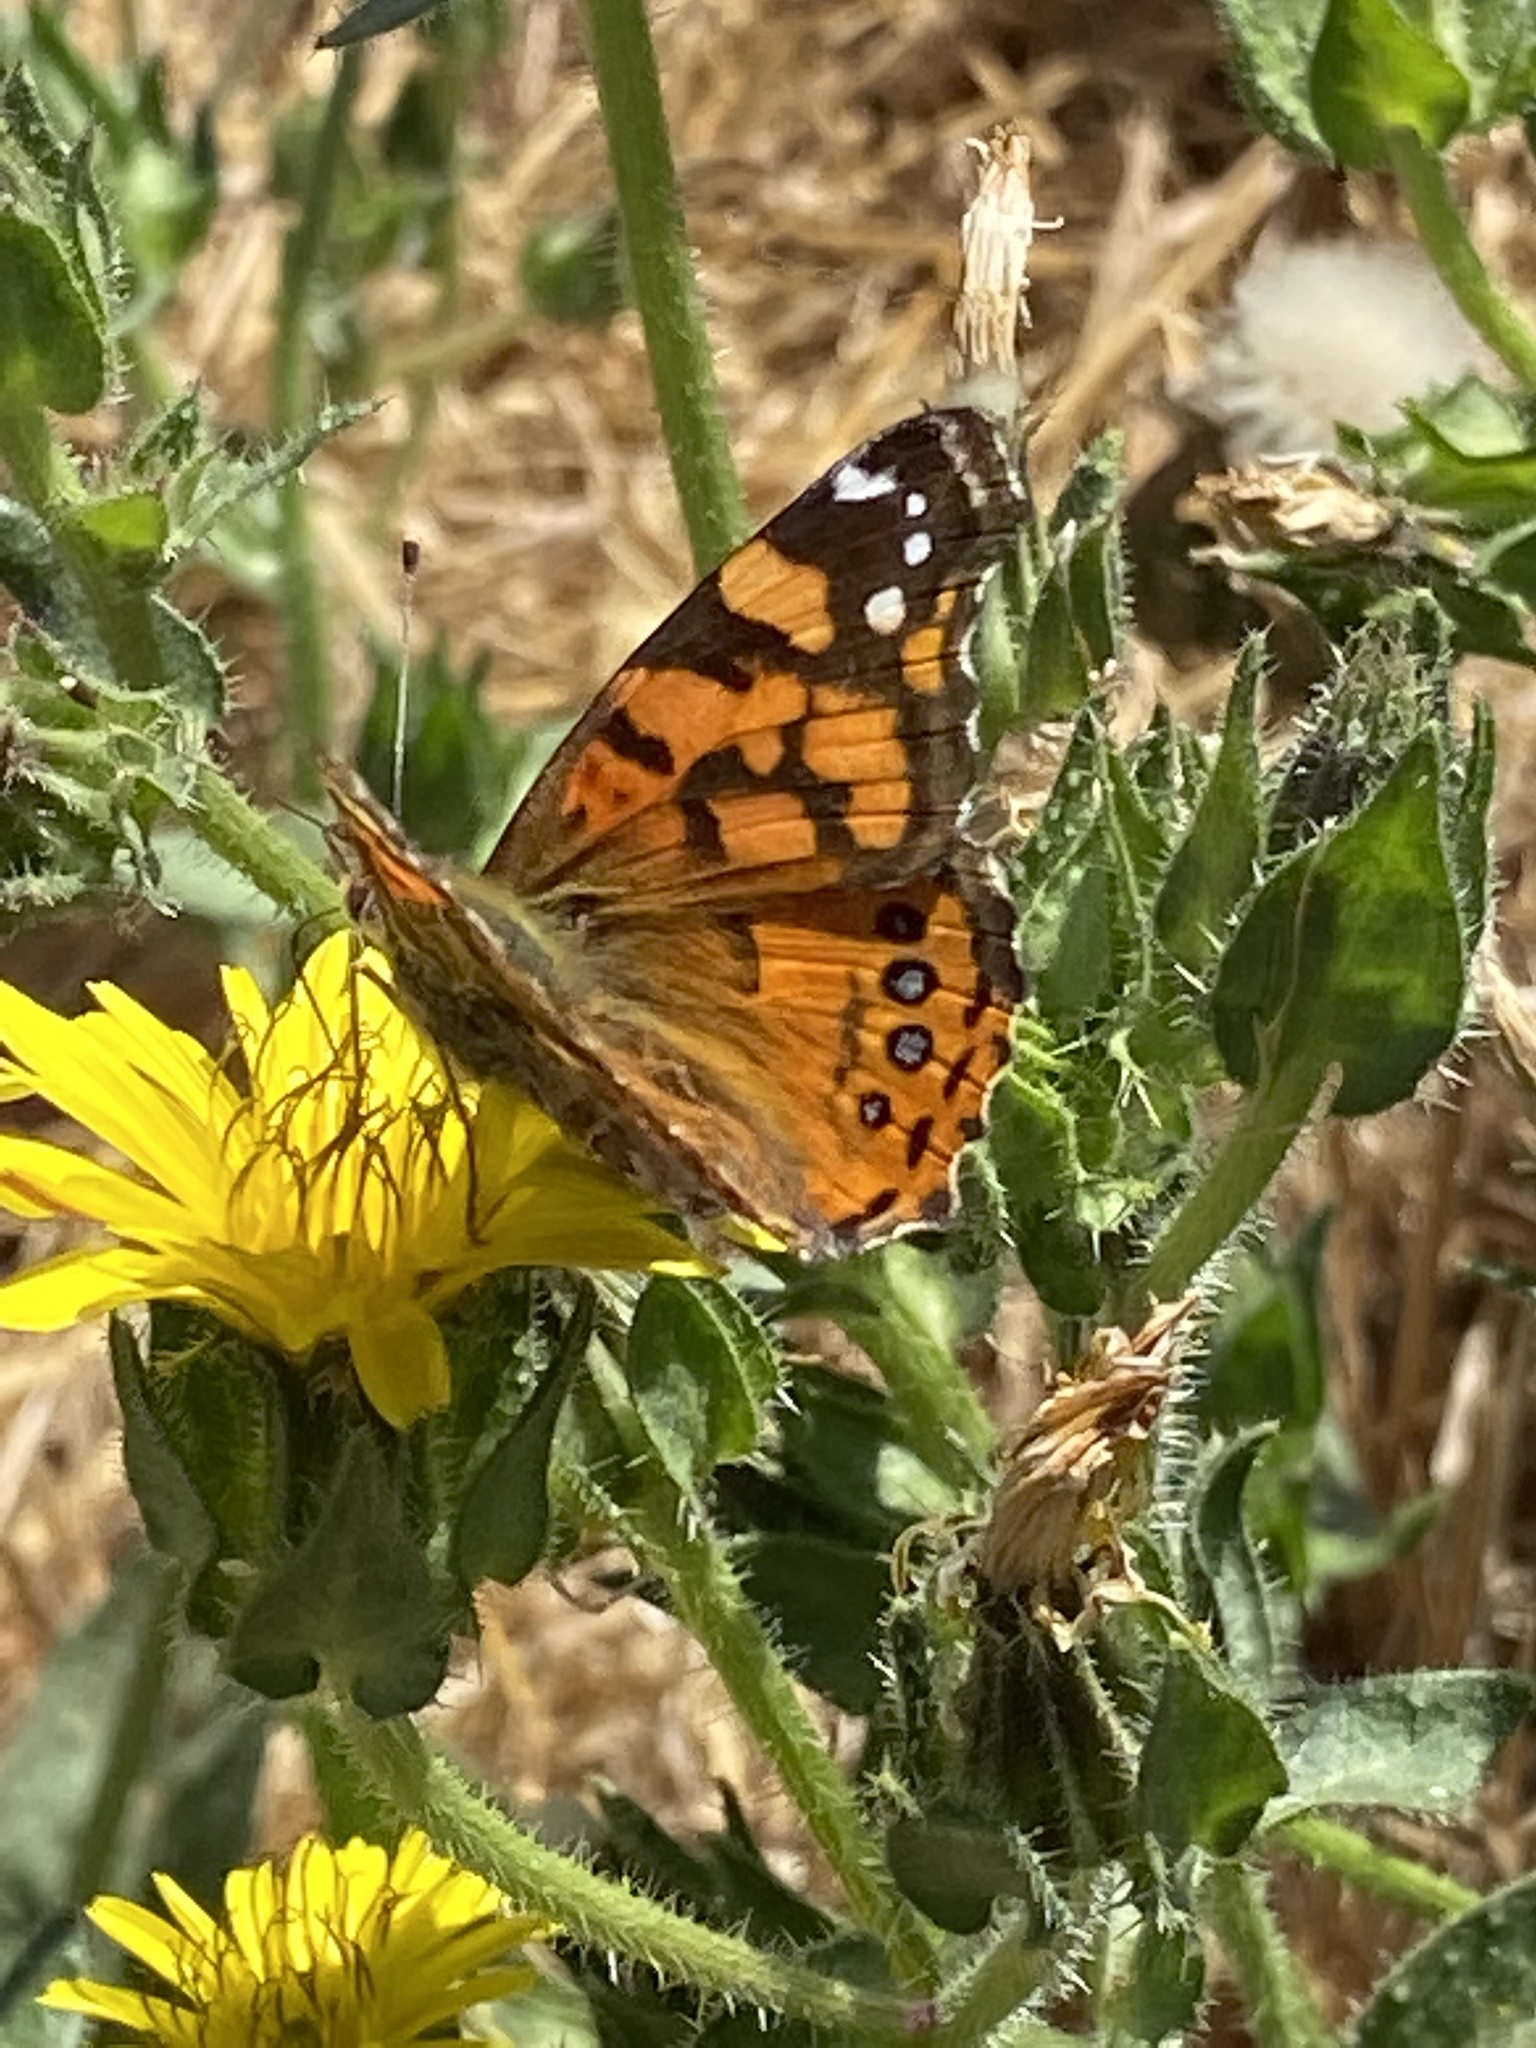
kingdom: Animalia
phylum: Arthropoda
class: Insecta
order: Lepidoptera
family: Nymphalidae
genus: Vanessa
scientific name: Vanessa annabella
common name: West coast lady
